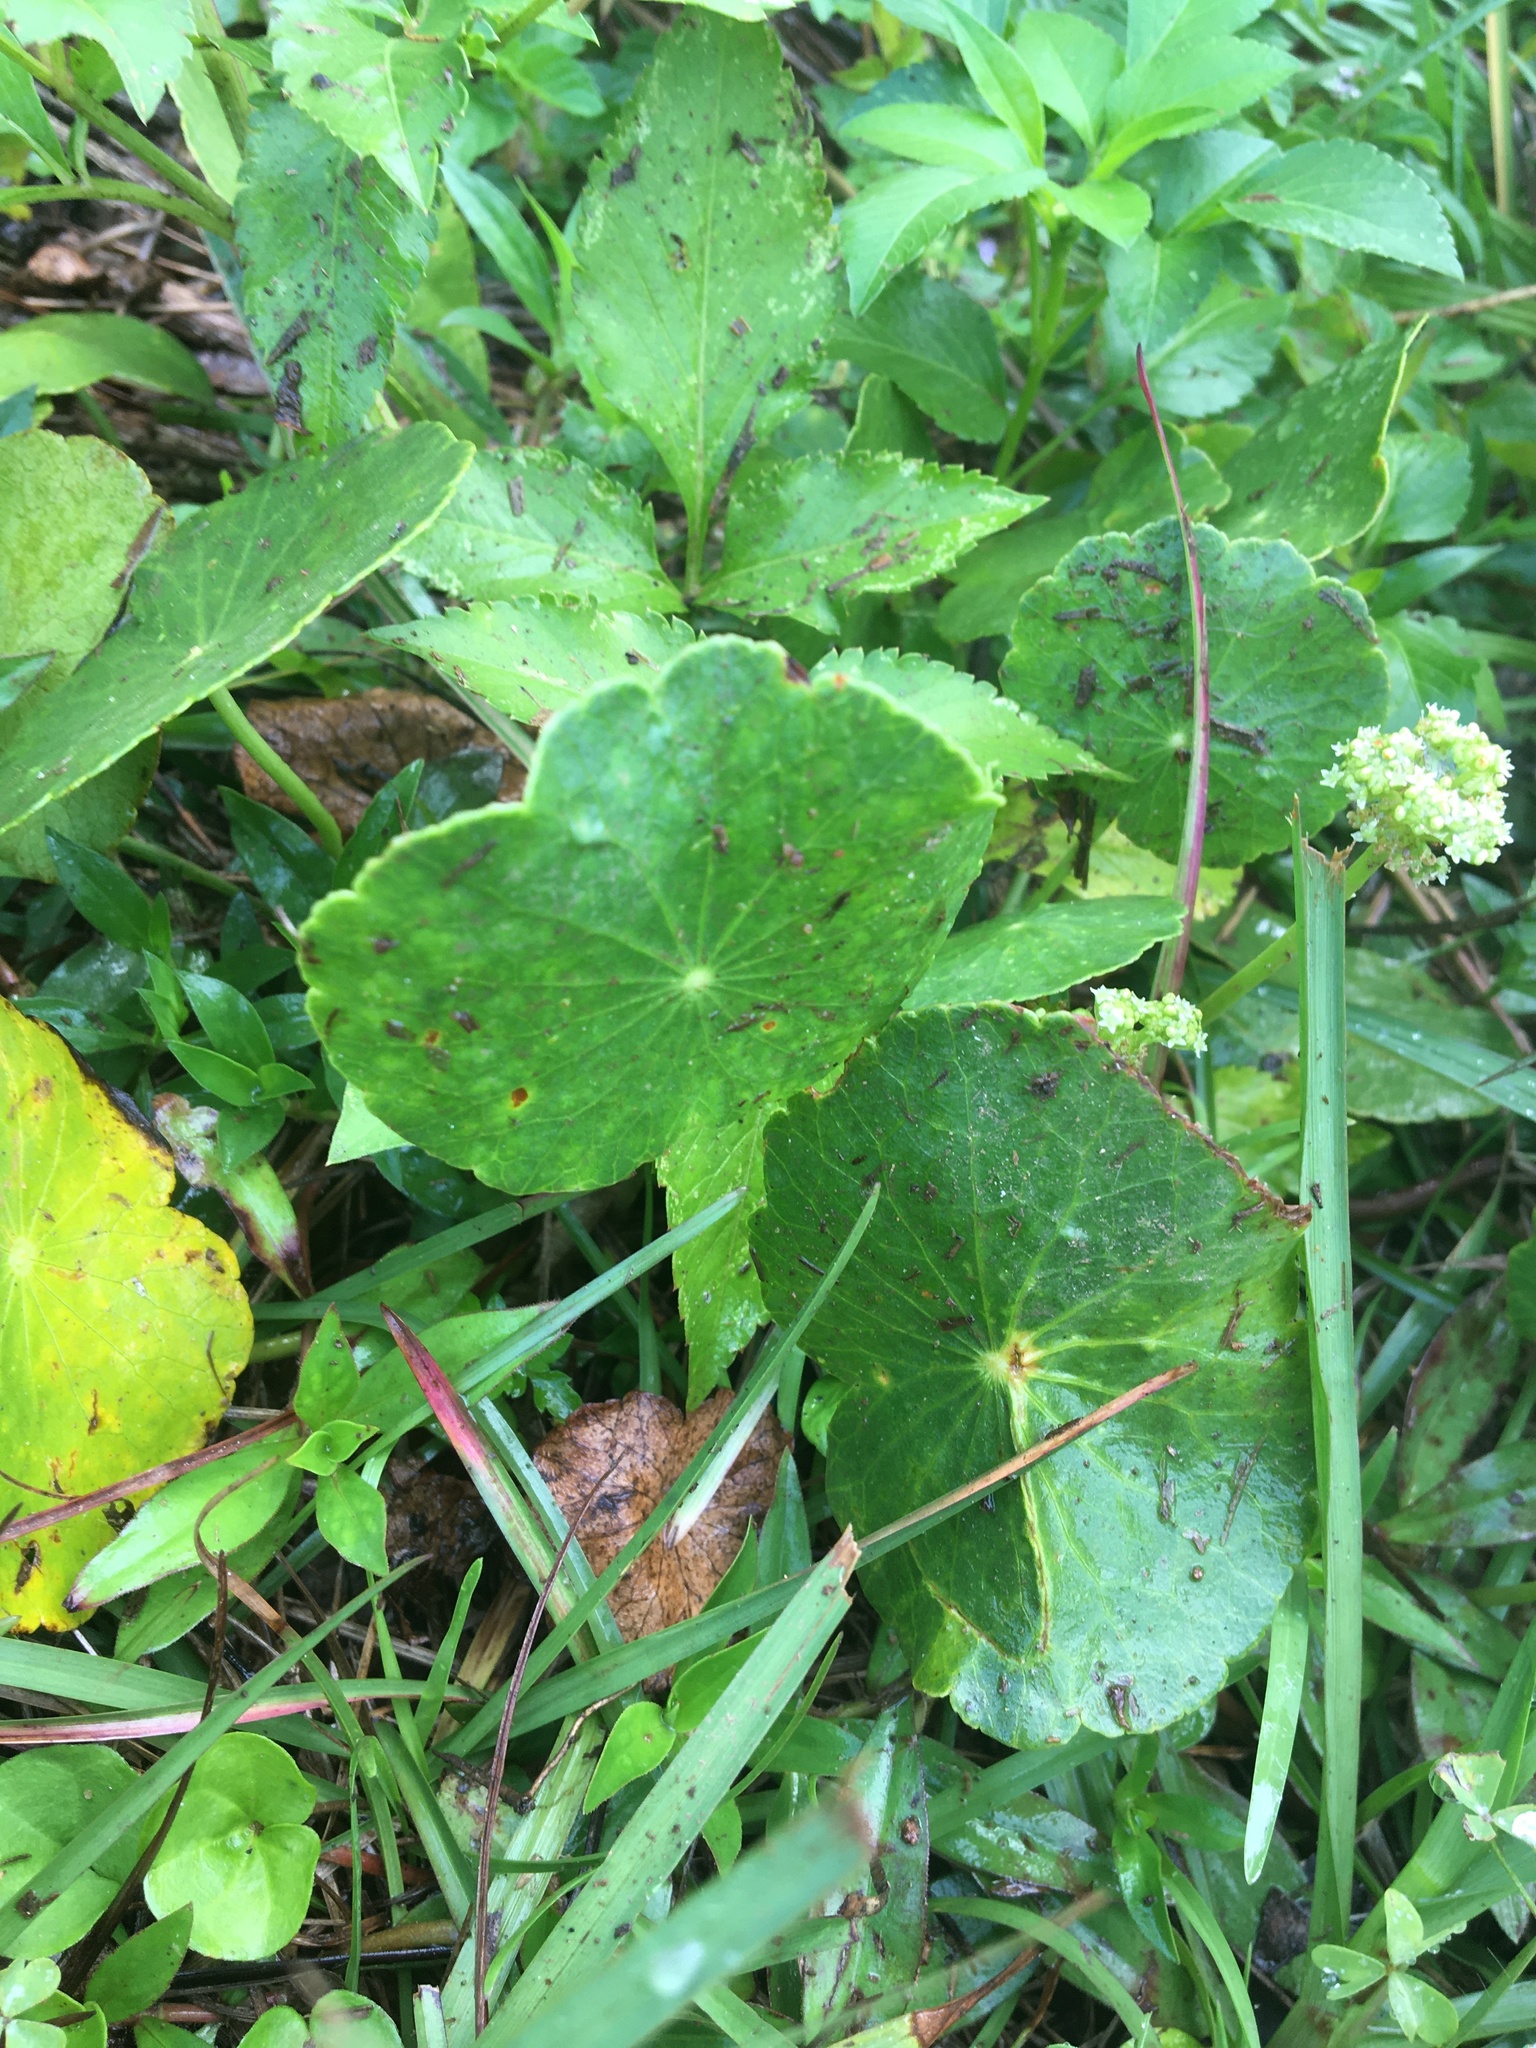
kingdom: Plantae
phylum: Tracheophyta
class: Magnoliopsida
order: Apiales
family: Araliaceae
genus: Hydrocotyle
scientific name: Hydrocotyle bonariensis
